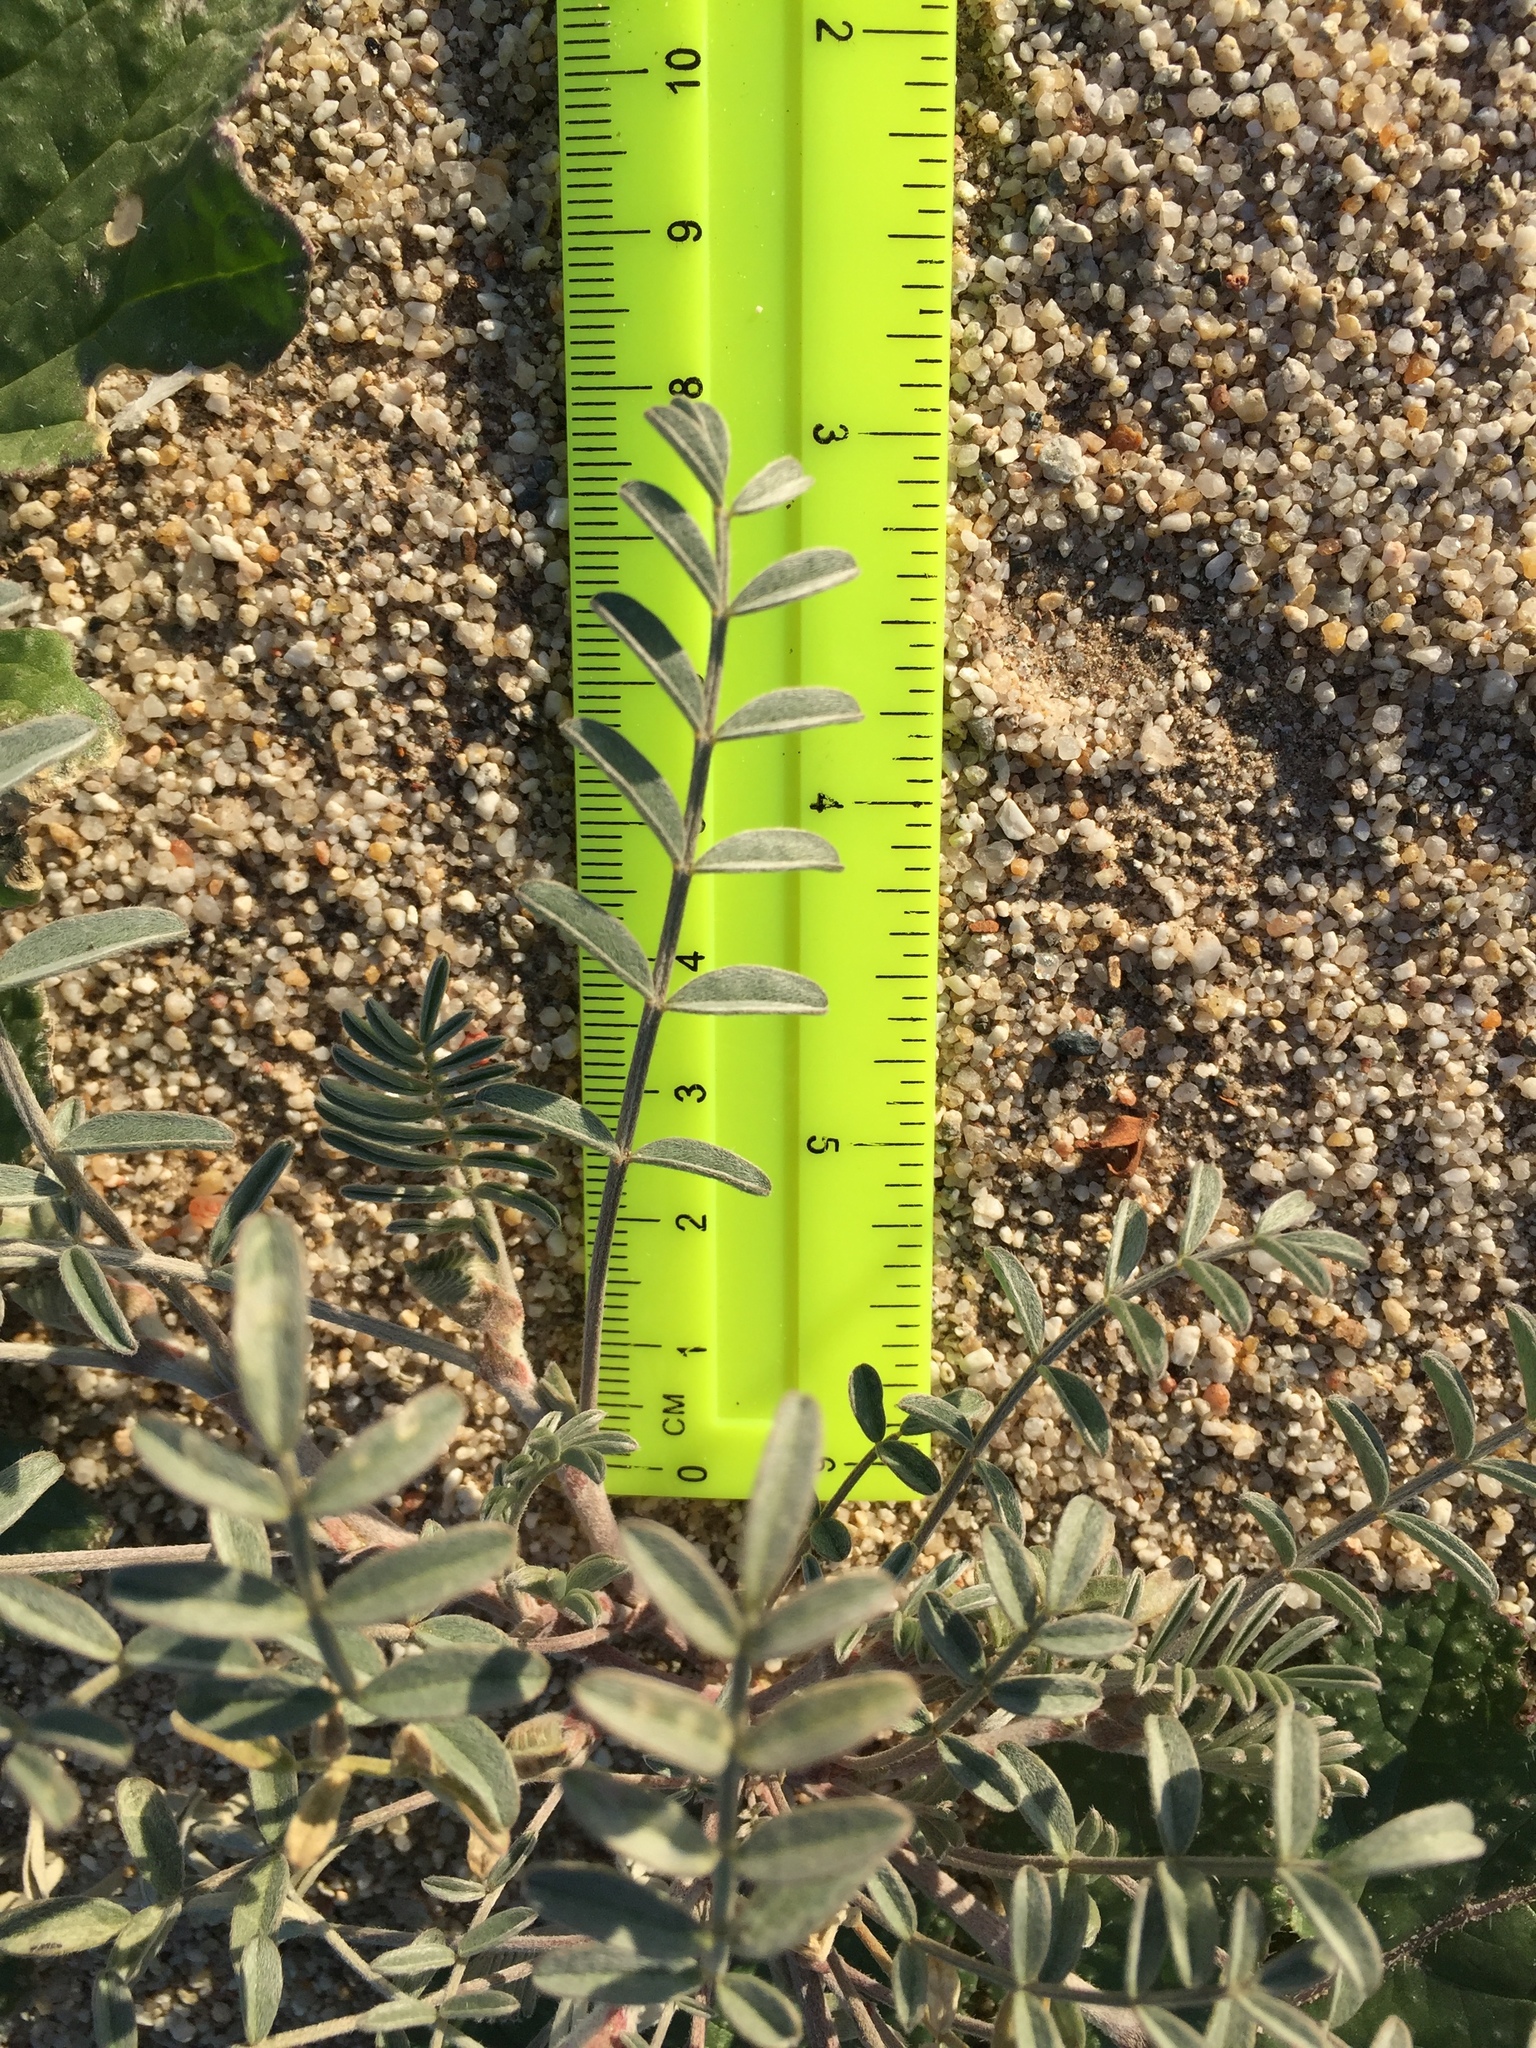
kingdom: Plantae
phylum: Tracheophyta
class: Magnoliopsida
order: Fabales
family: Fabaceae
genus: Astragalus
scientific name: Astragalus aridus
